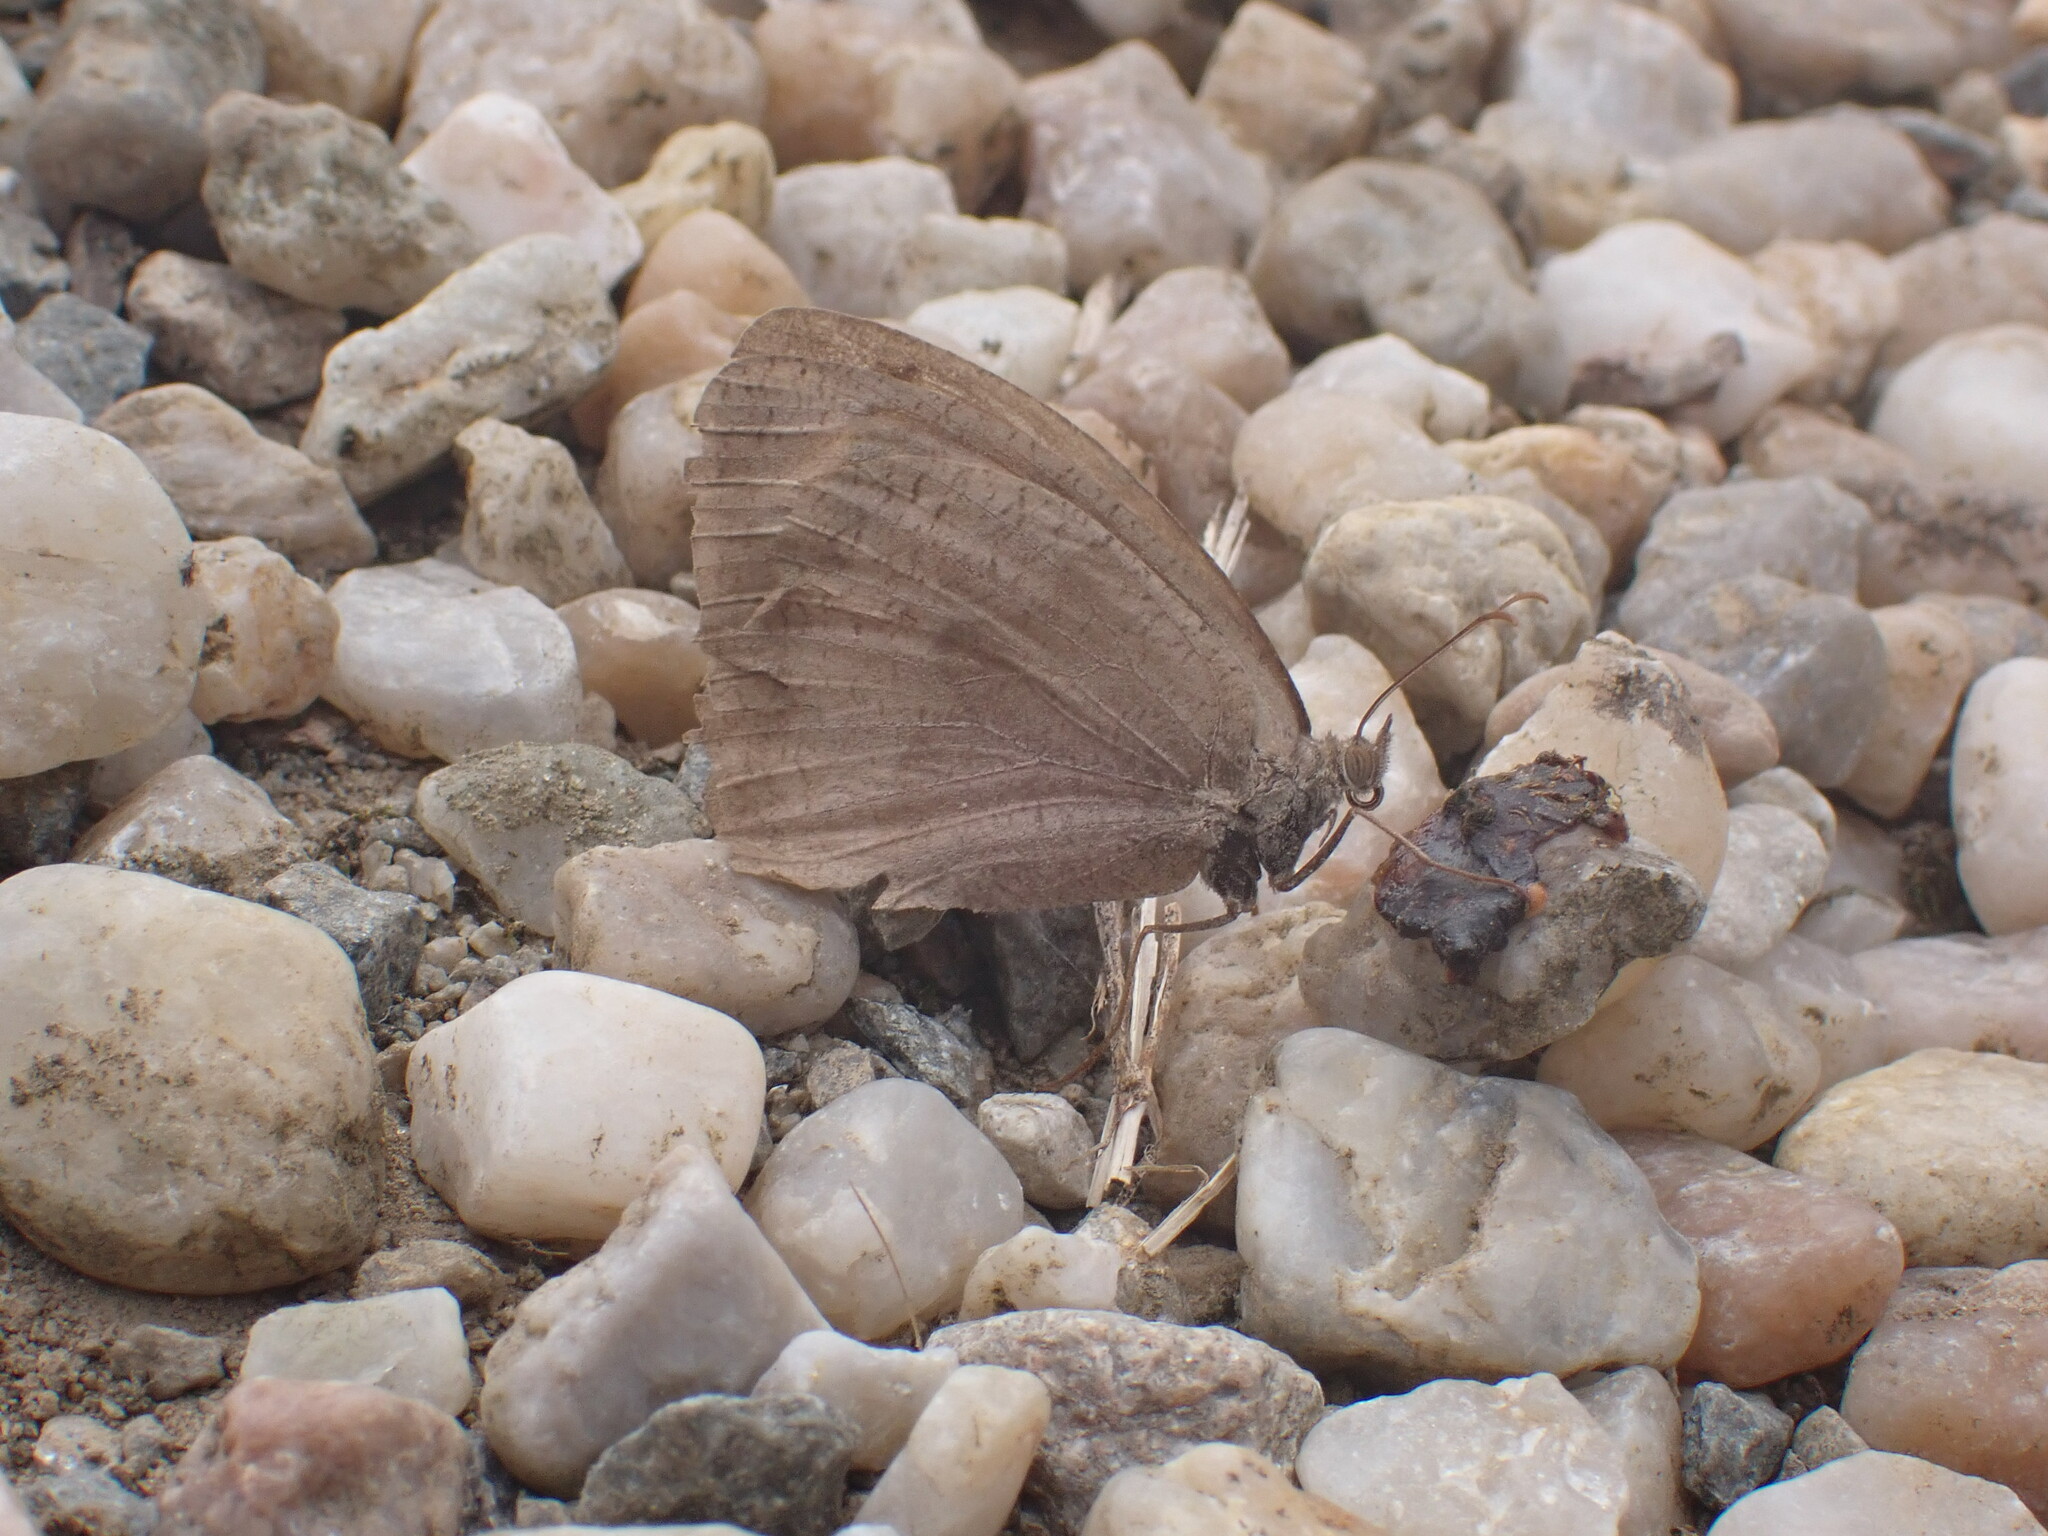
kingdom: Animalia
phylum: Arthropoda
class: Insecta
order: Lepidoptera
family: Nymphalidae
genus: Maniola
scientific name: Maniola jurtina
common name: Meadow brown
